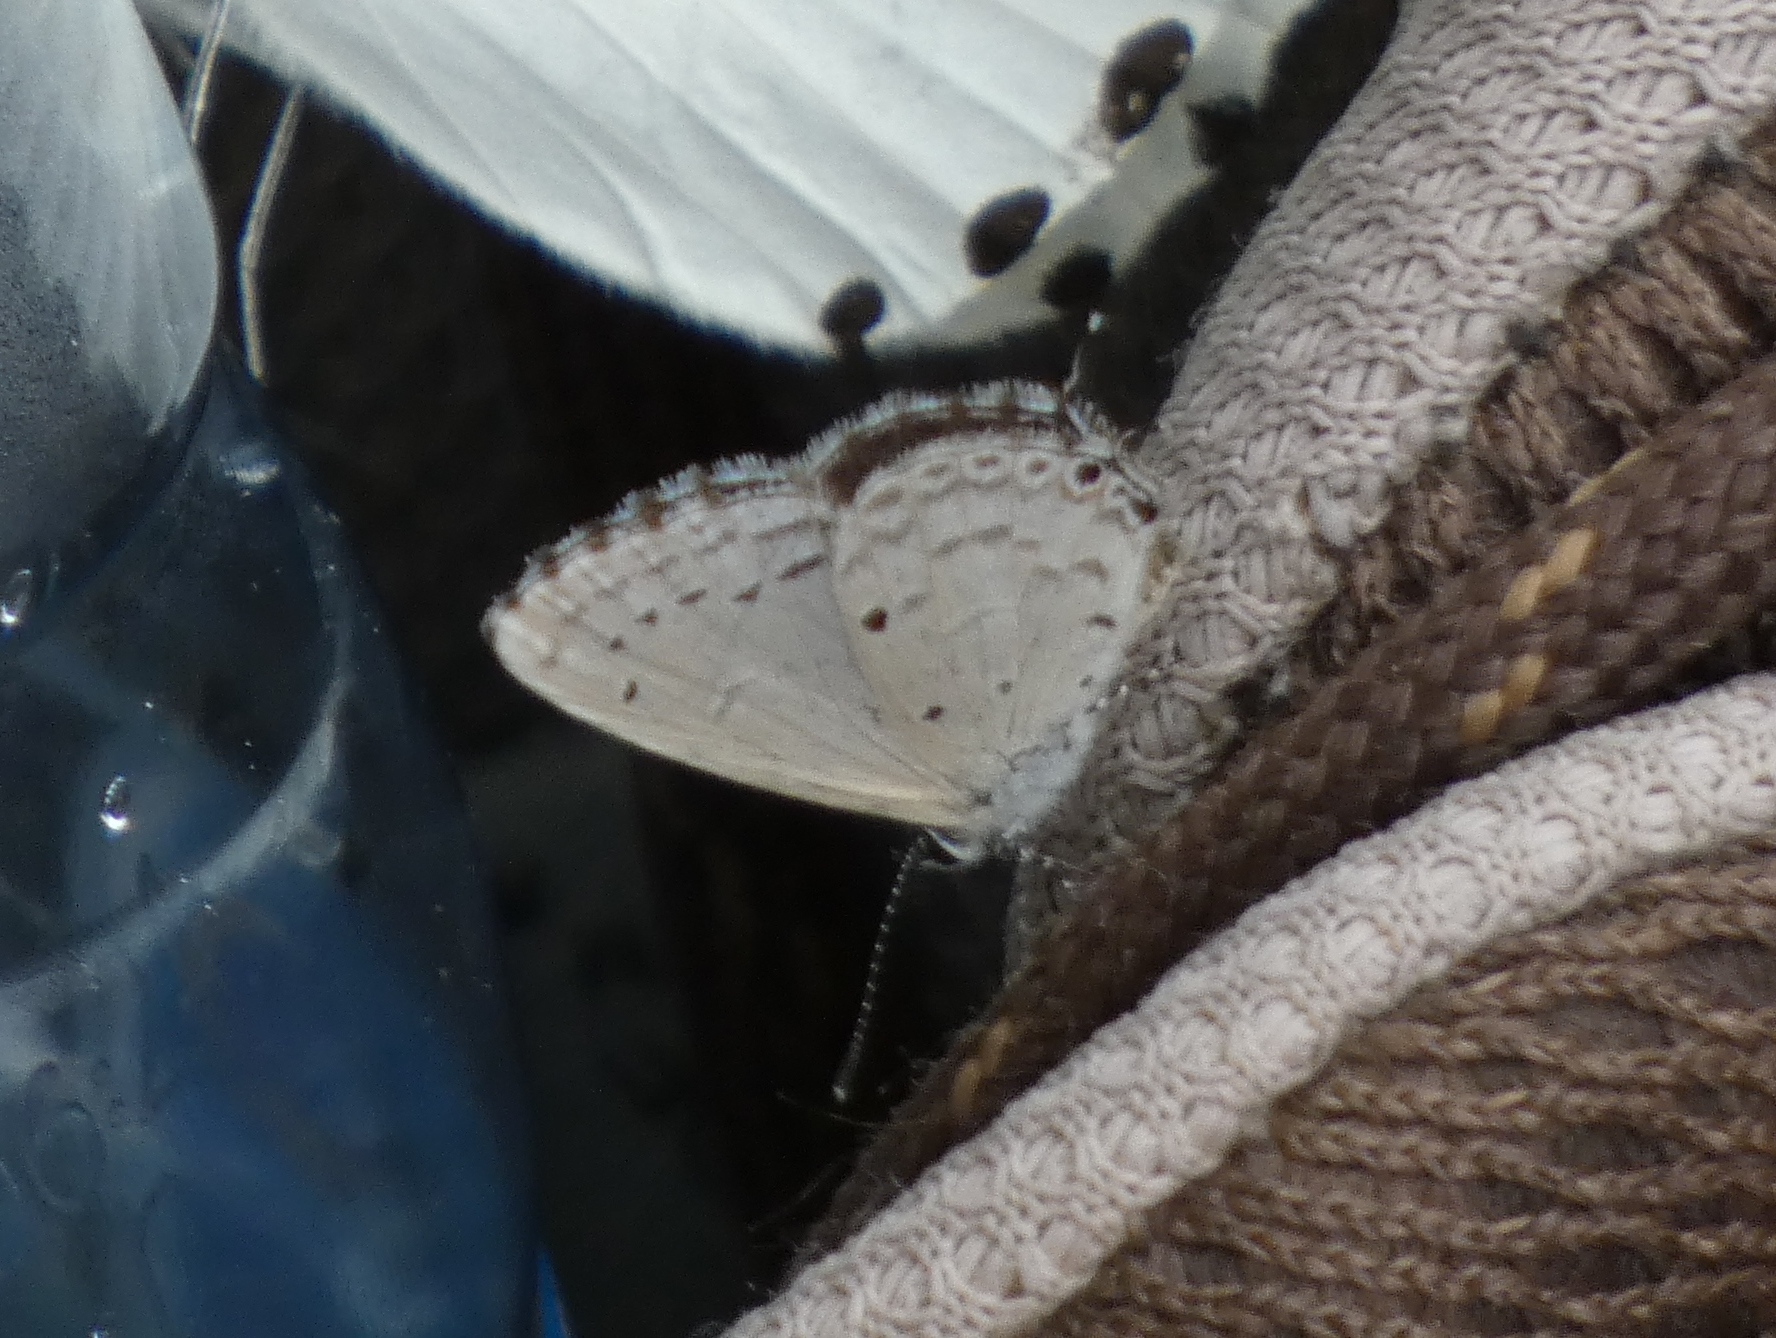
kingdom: Animalia
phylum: Arthropoda
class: Insecta
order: Lepidoptera
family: Lycaenidae
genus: Eicochrysops
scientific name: Eicochrysops hippocrates
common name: White-tipped blue
